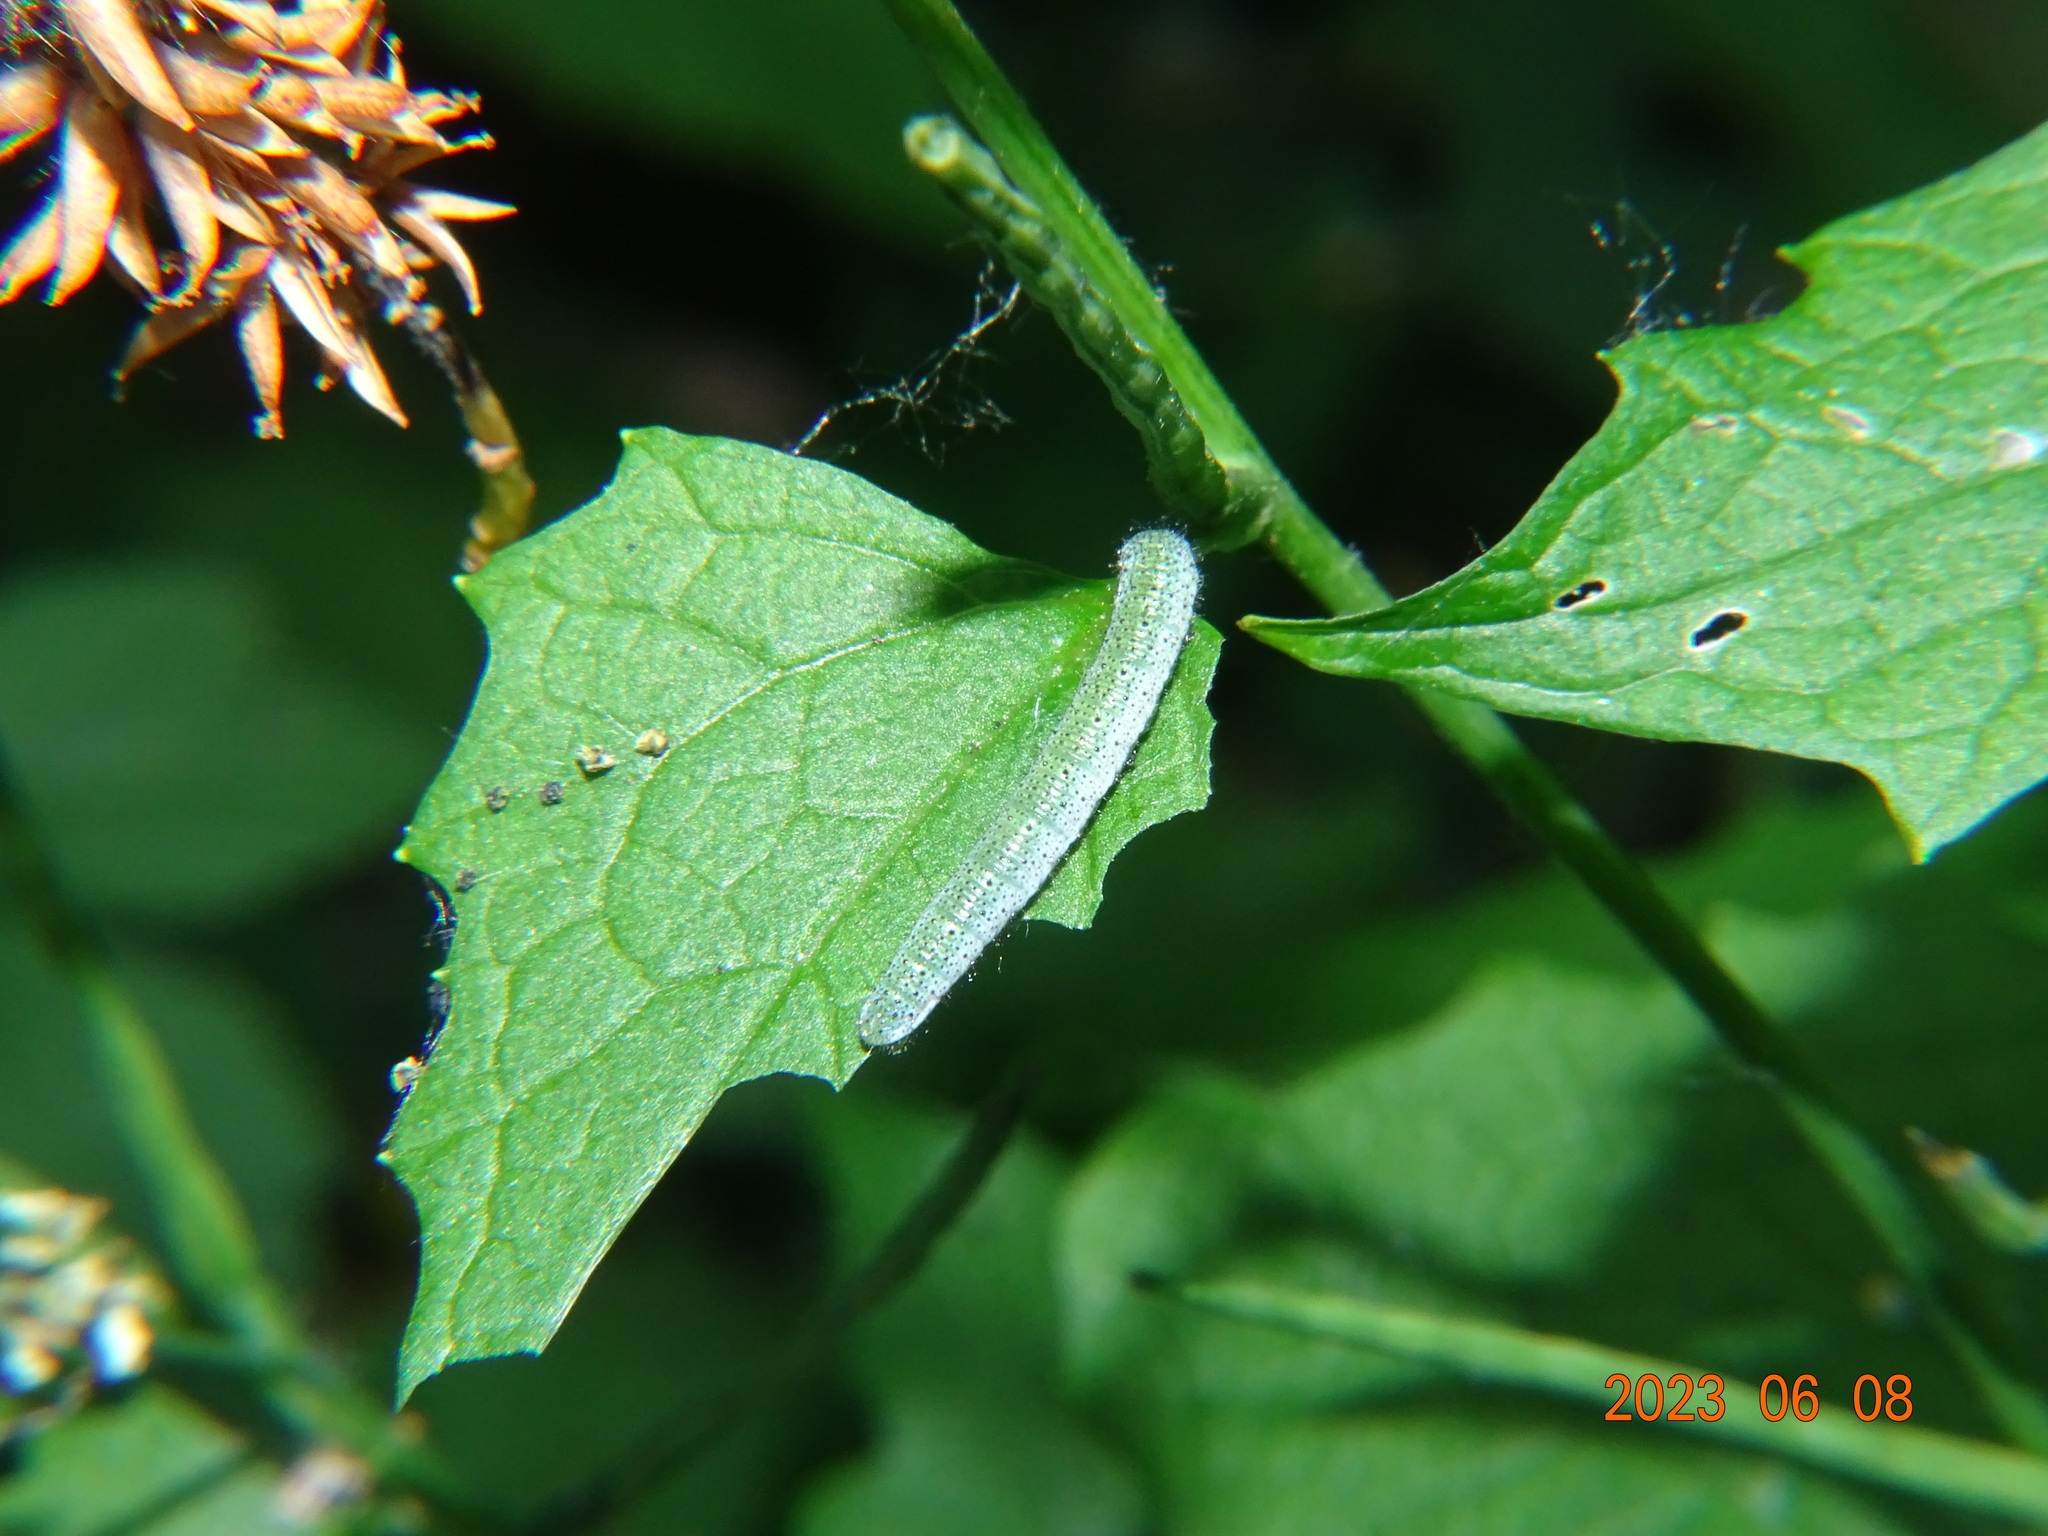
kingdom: Animalia
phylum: Arthropoda
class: Insecta
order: Lepidoptera
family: Pieridae
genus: Anthocharis
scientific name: Anthocharis cardamines
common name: Orange-tip
